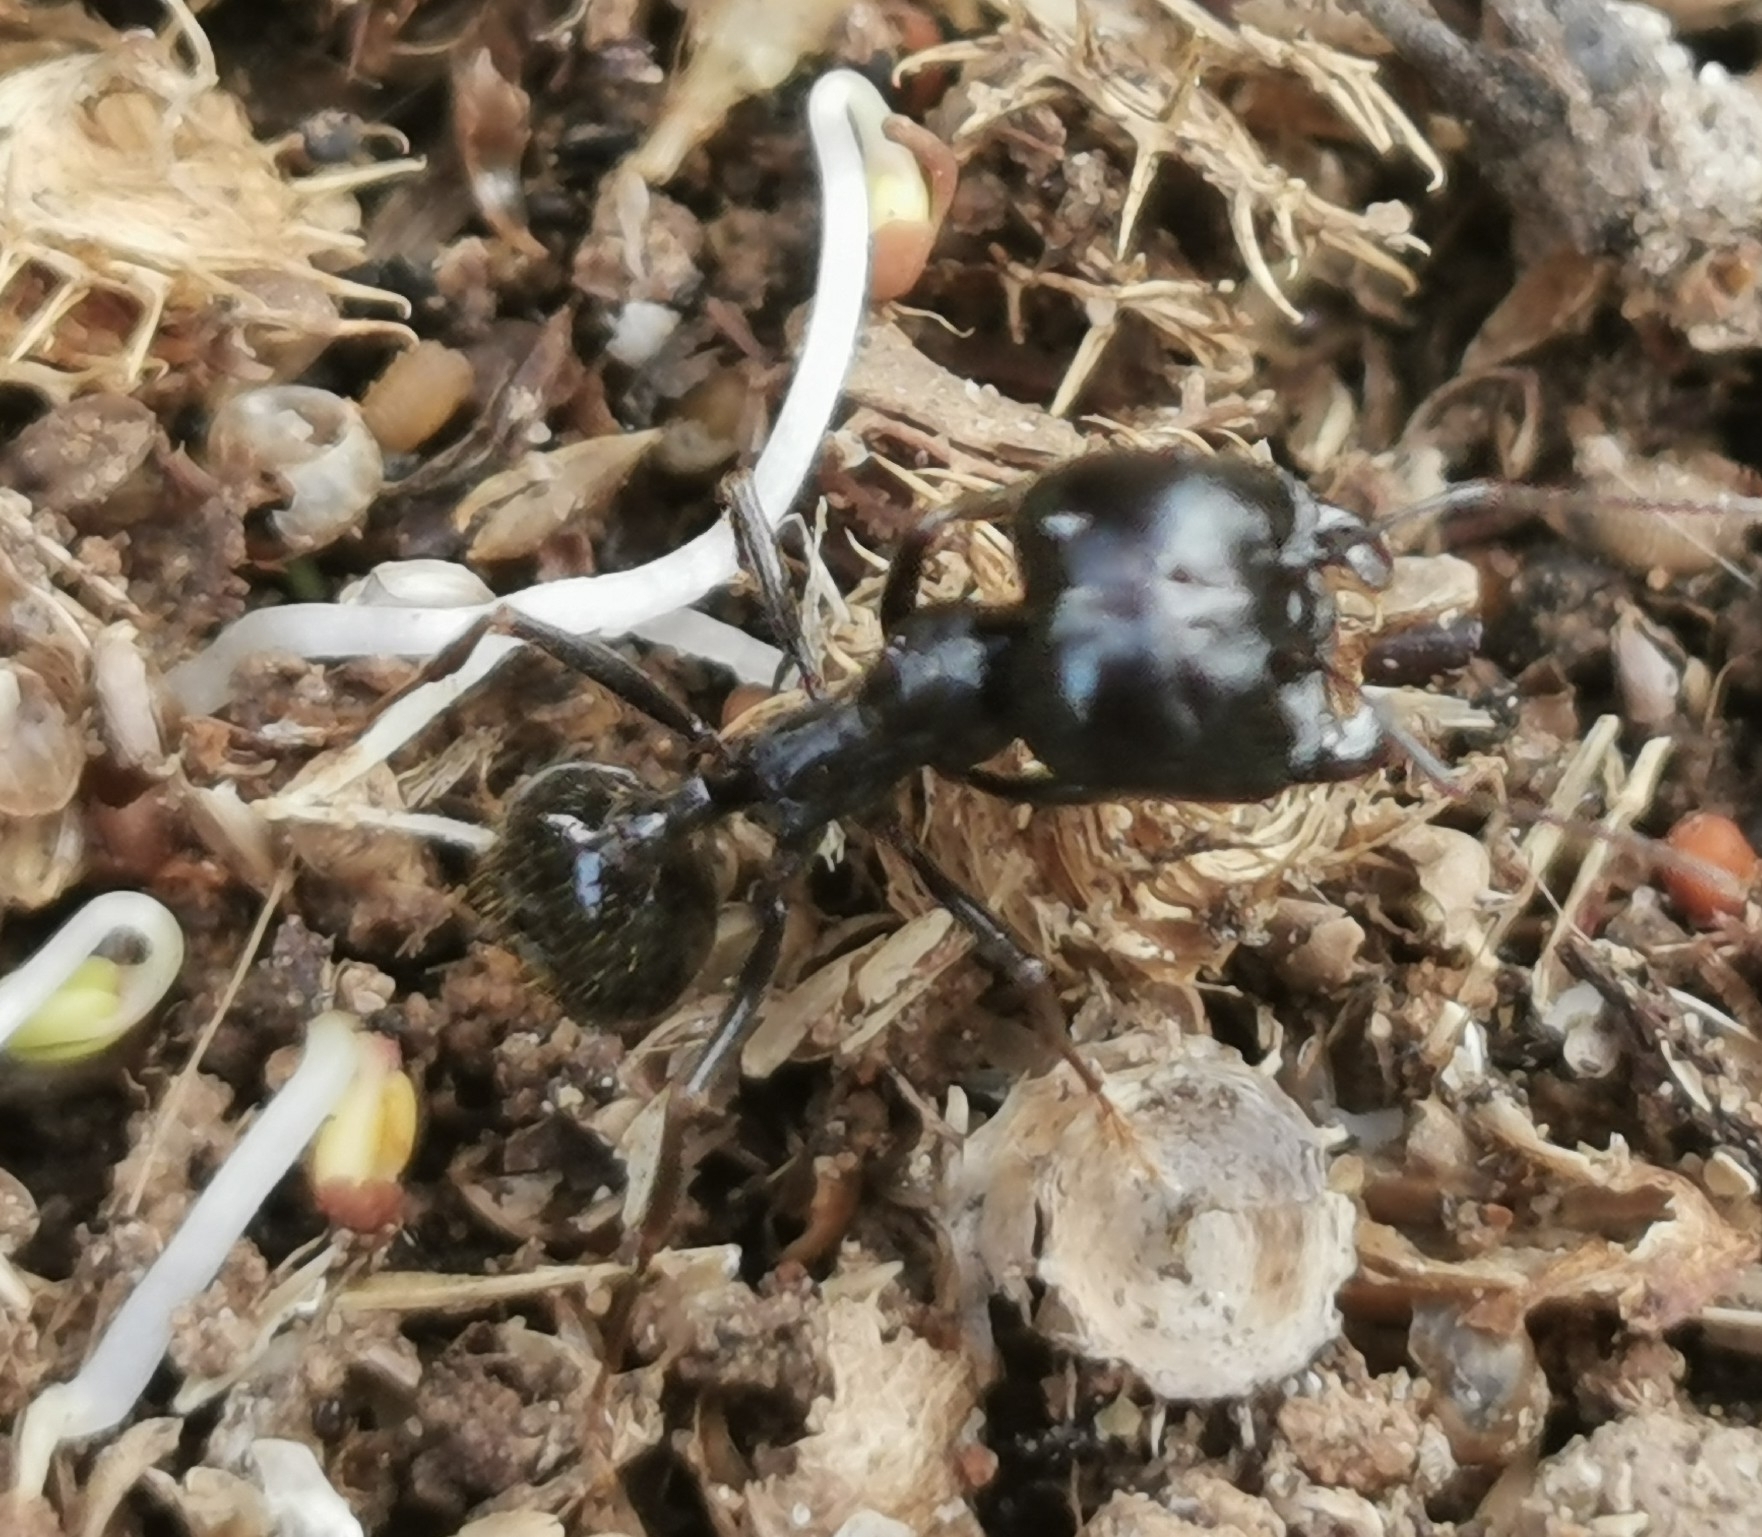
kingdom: Animalia
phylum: Arthropoda
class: Insecta
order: Hymenoptera
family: Formicidae
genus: Messor
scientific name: Messor capitatus
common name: European seed harvesting ant
